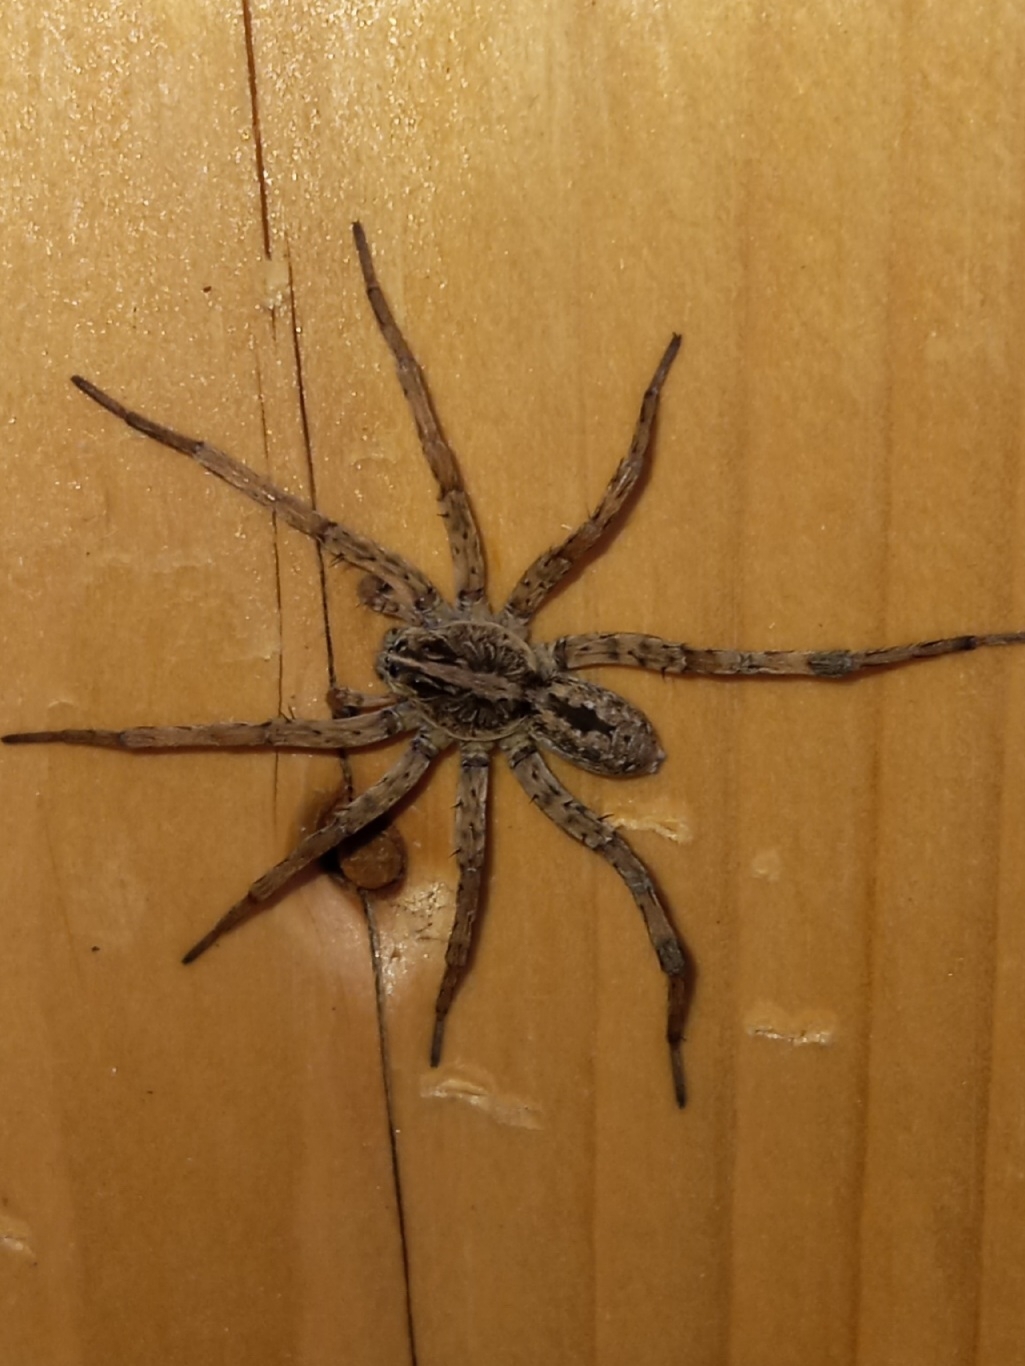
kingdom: Animalia
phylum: Arthropoda
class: Arachnida
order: Araneae
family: Lycosidae
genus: Hogna
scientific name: Hogna antelucana
